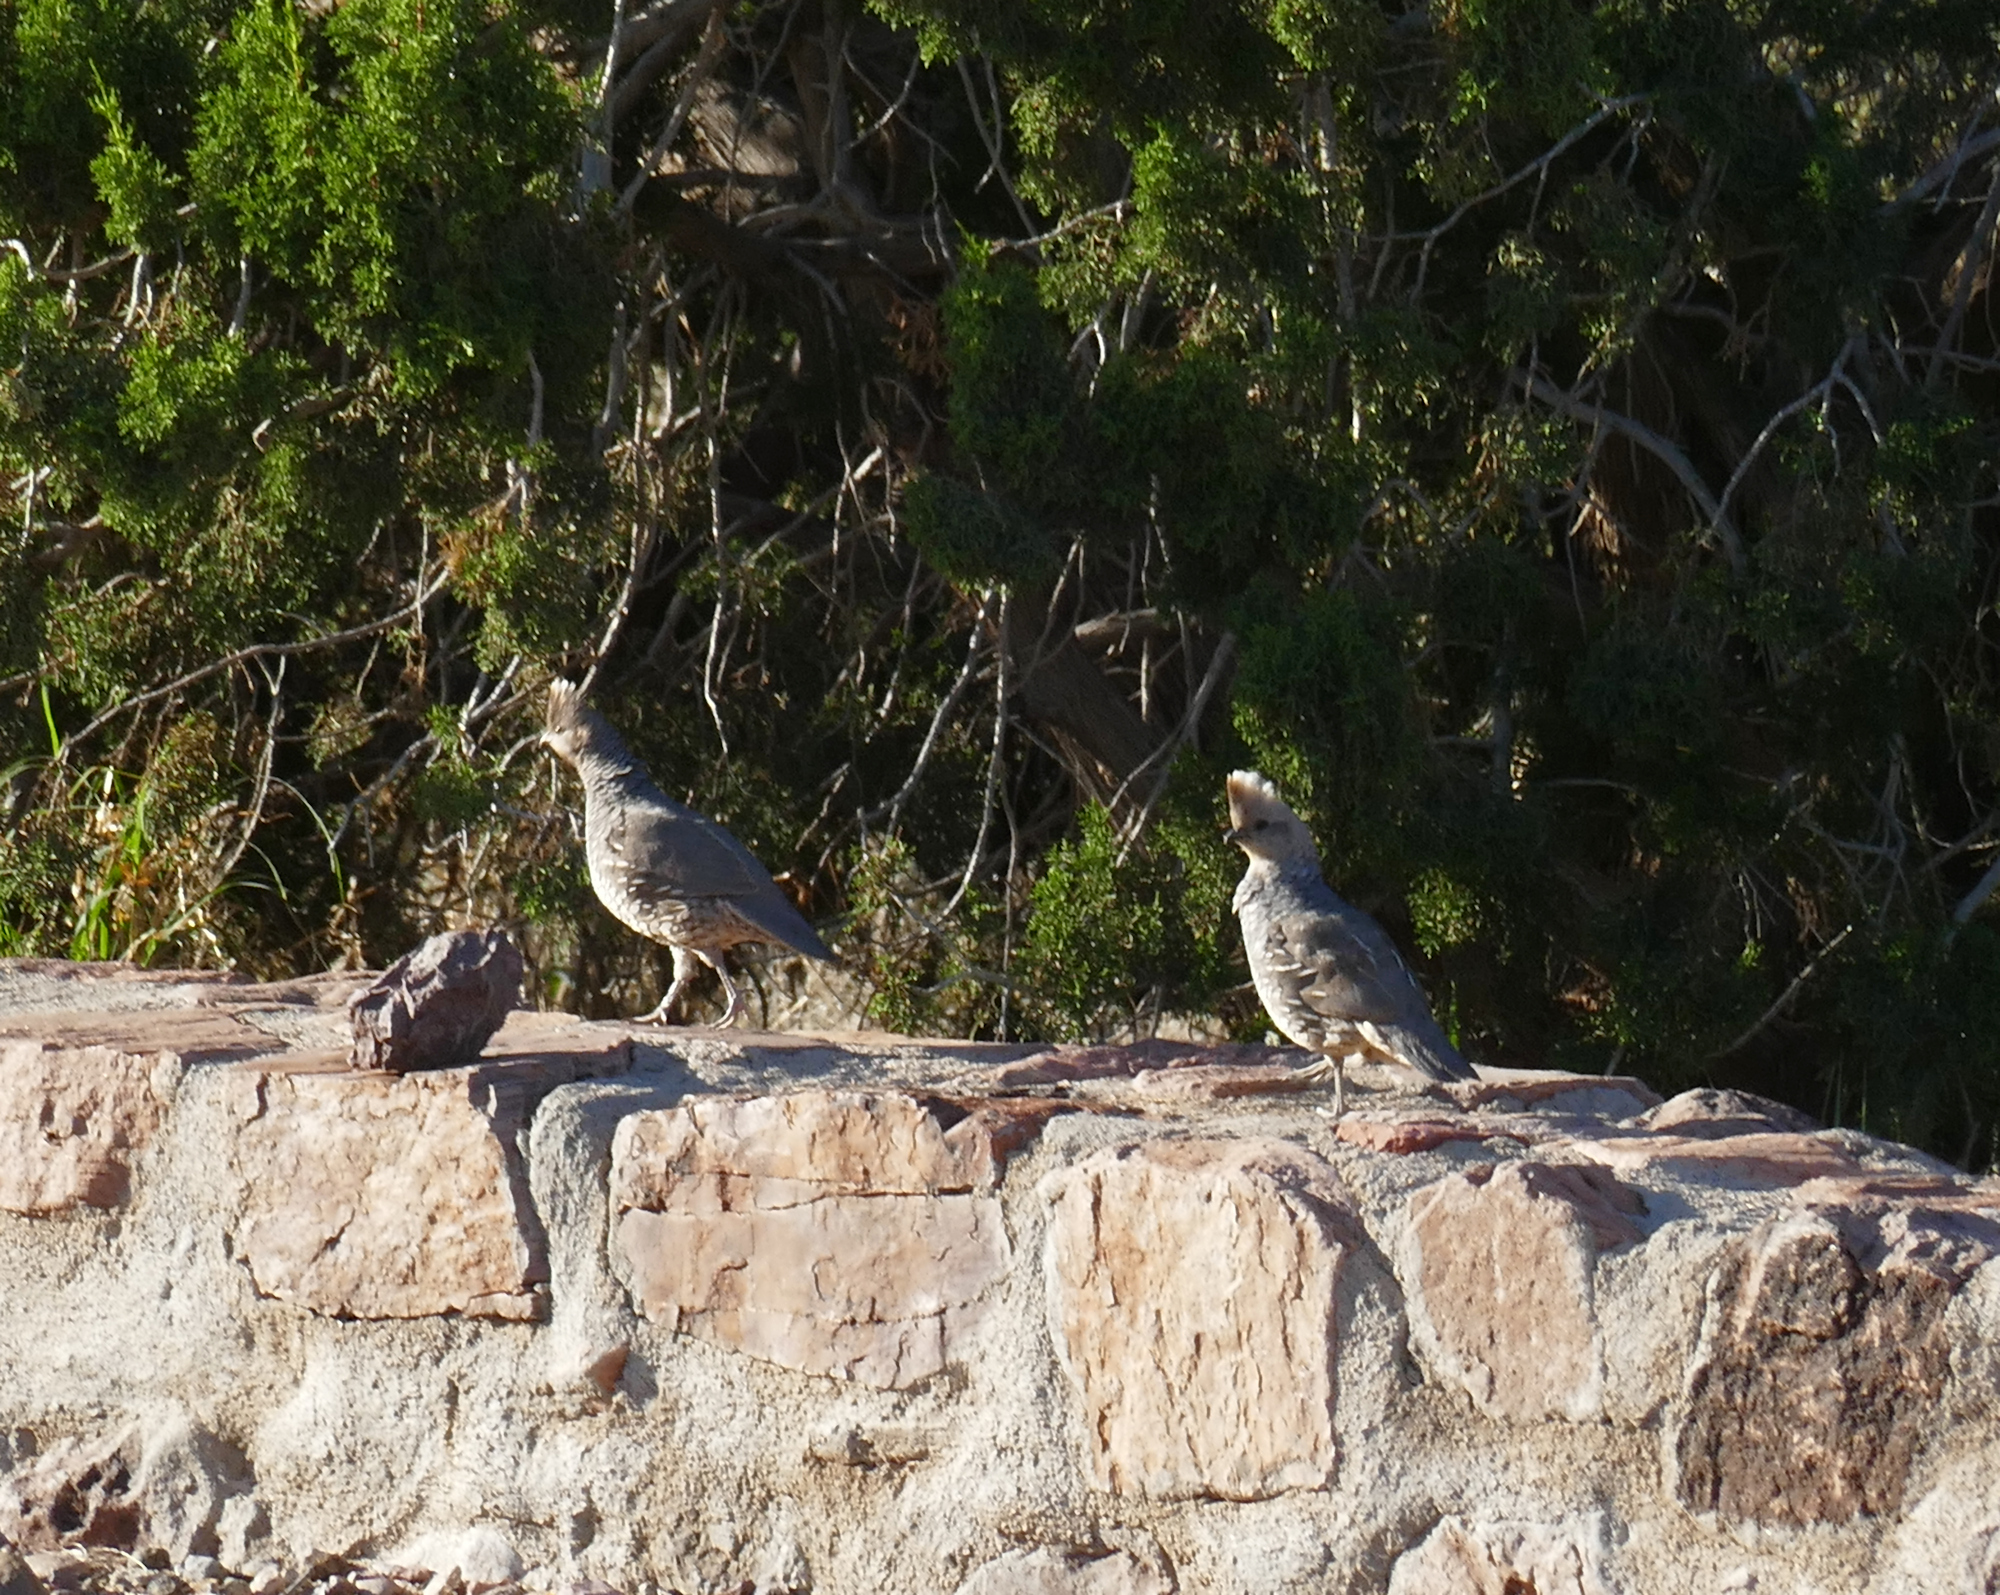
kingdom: Animalia
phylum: Chordata
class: Aves
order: Galliformes
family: Odontophoridae
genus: Callipepla
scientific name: Callipepla squamata
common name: Scaled quail
